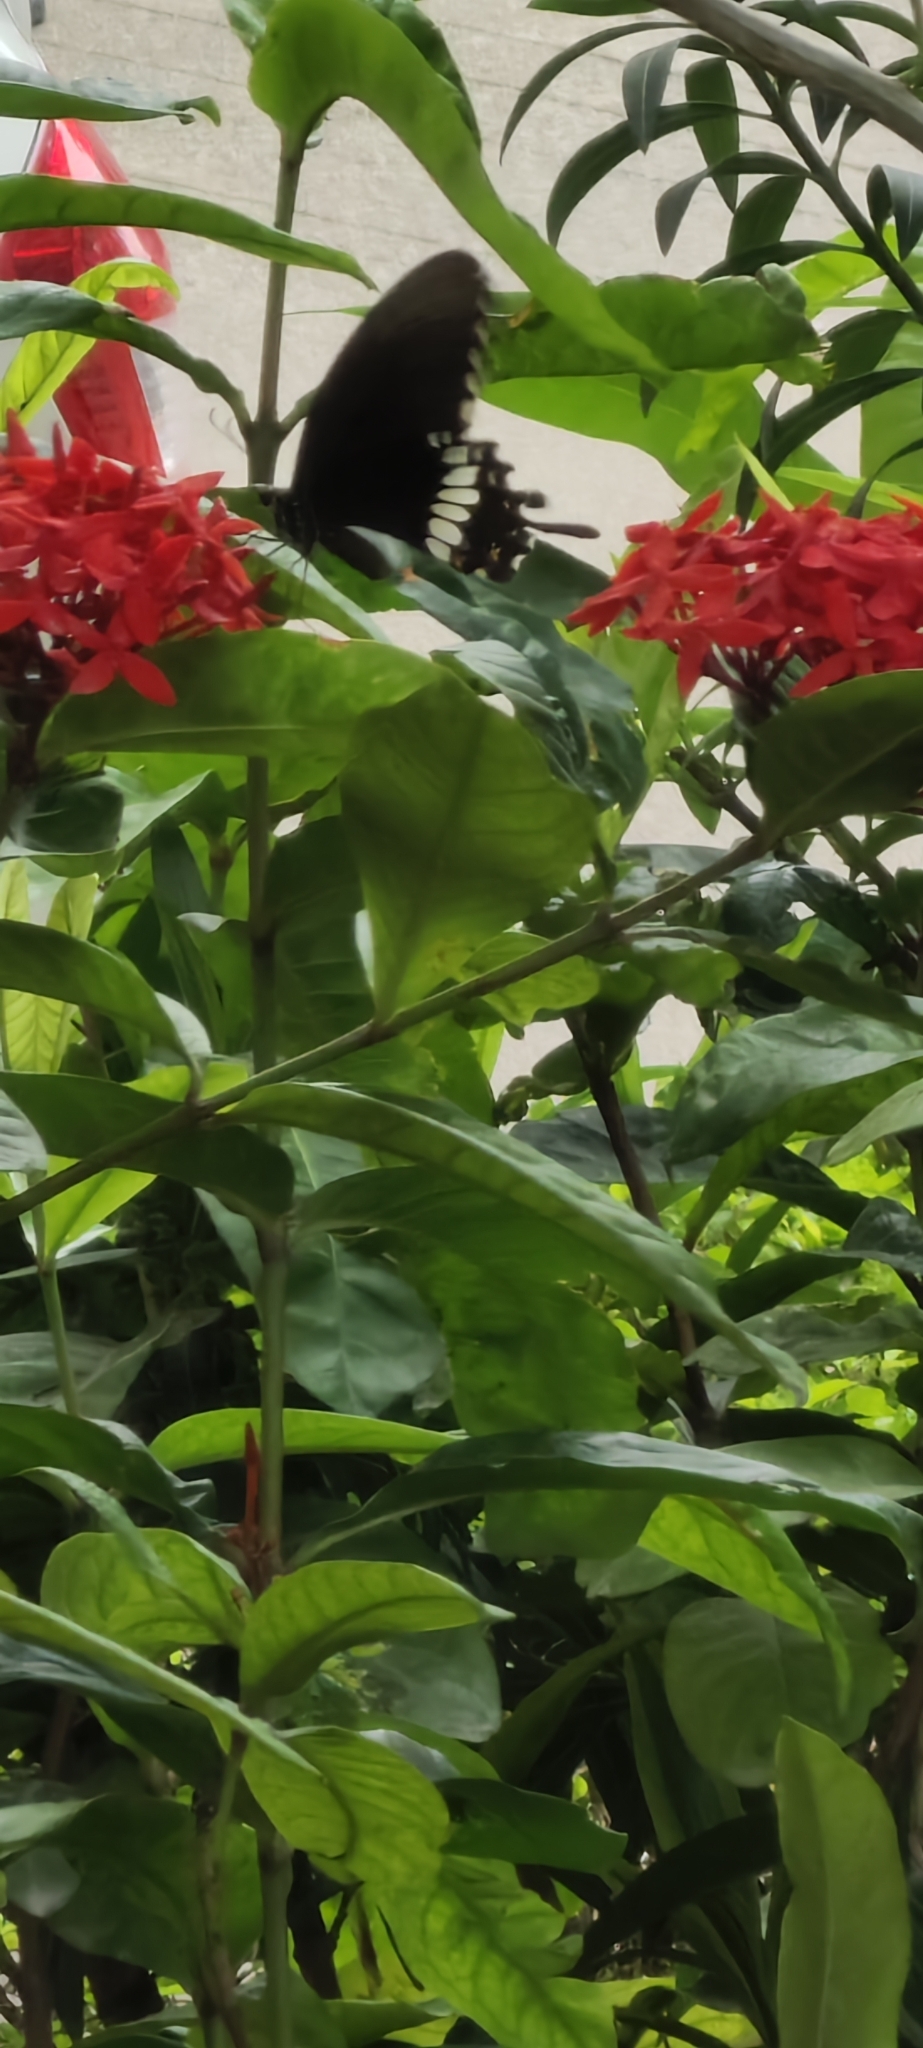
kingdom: Animalia
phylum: Arthropoda
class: Insecta
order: Lepidoptera
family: Papilionidae
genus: Papilio
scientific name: Papilio polytes
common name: Common mormon
